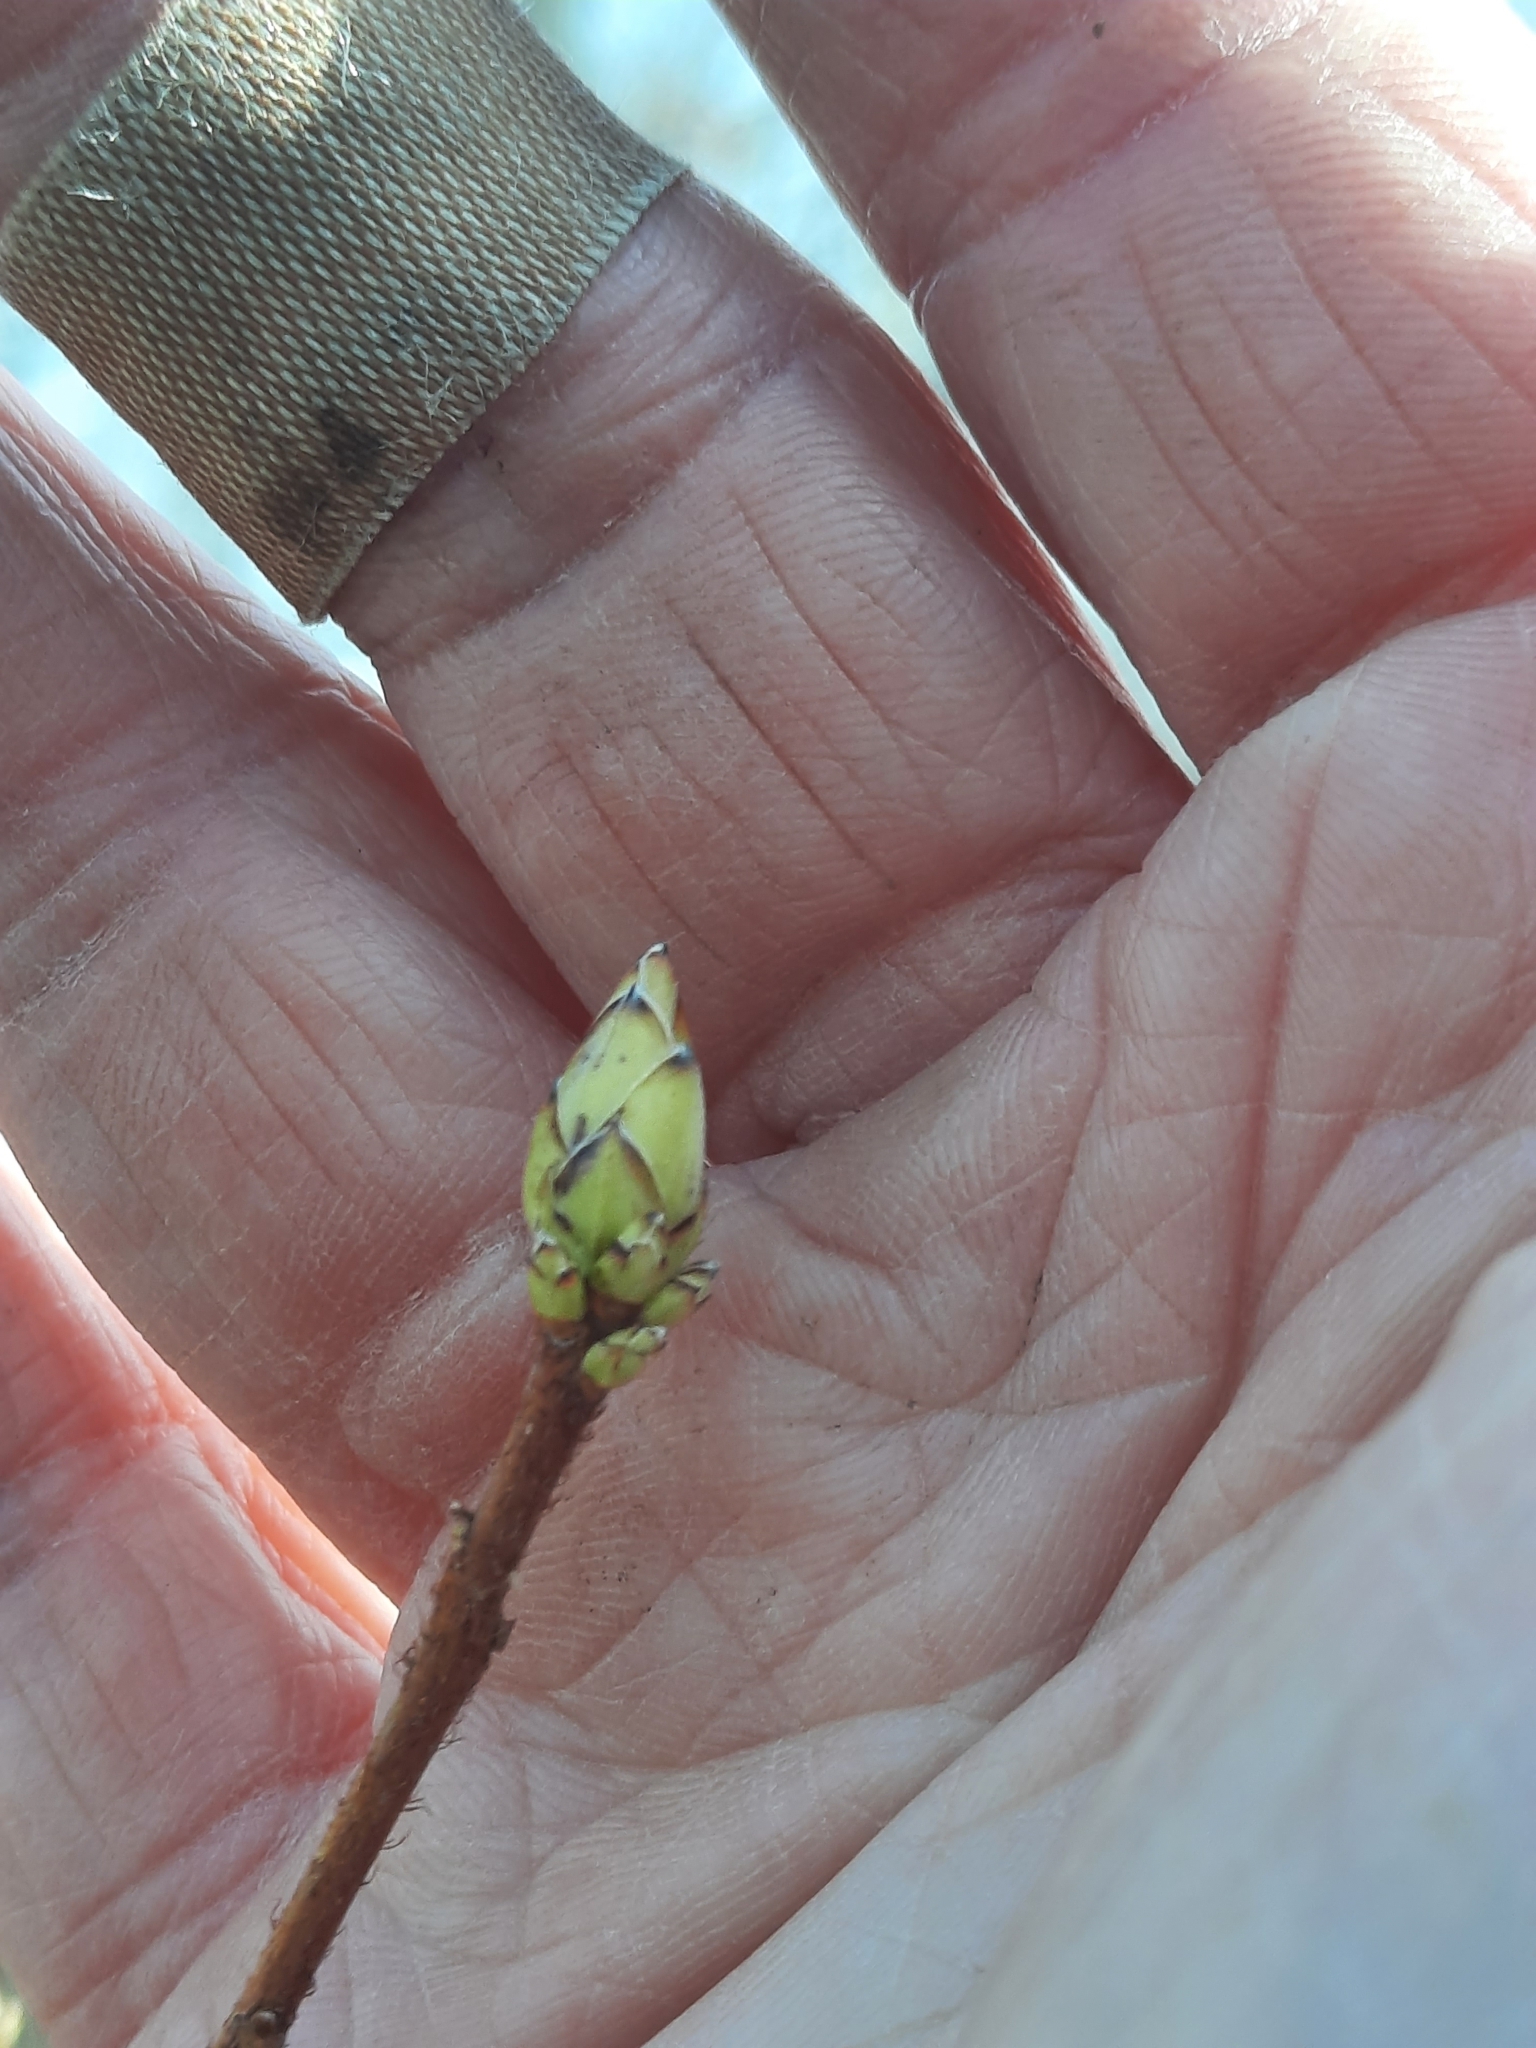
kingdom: Plantae
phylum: Tracheophyta
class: Magnoliopsida
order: Ericales
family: Ericaceae
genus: Rhododendron
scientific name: Rhododendron viscosum
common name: Clammy azalea
